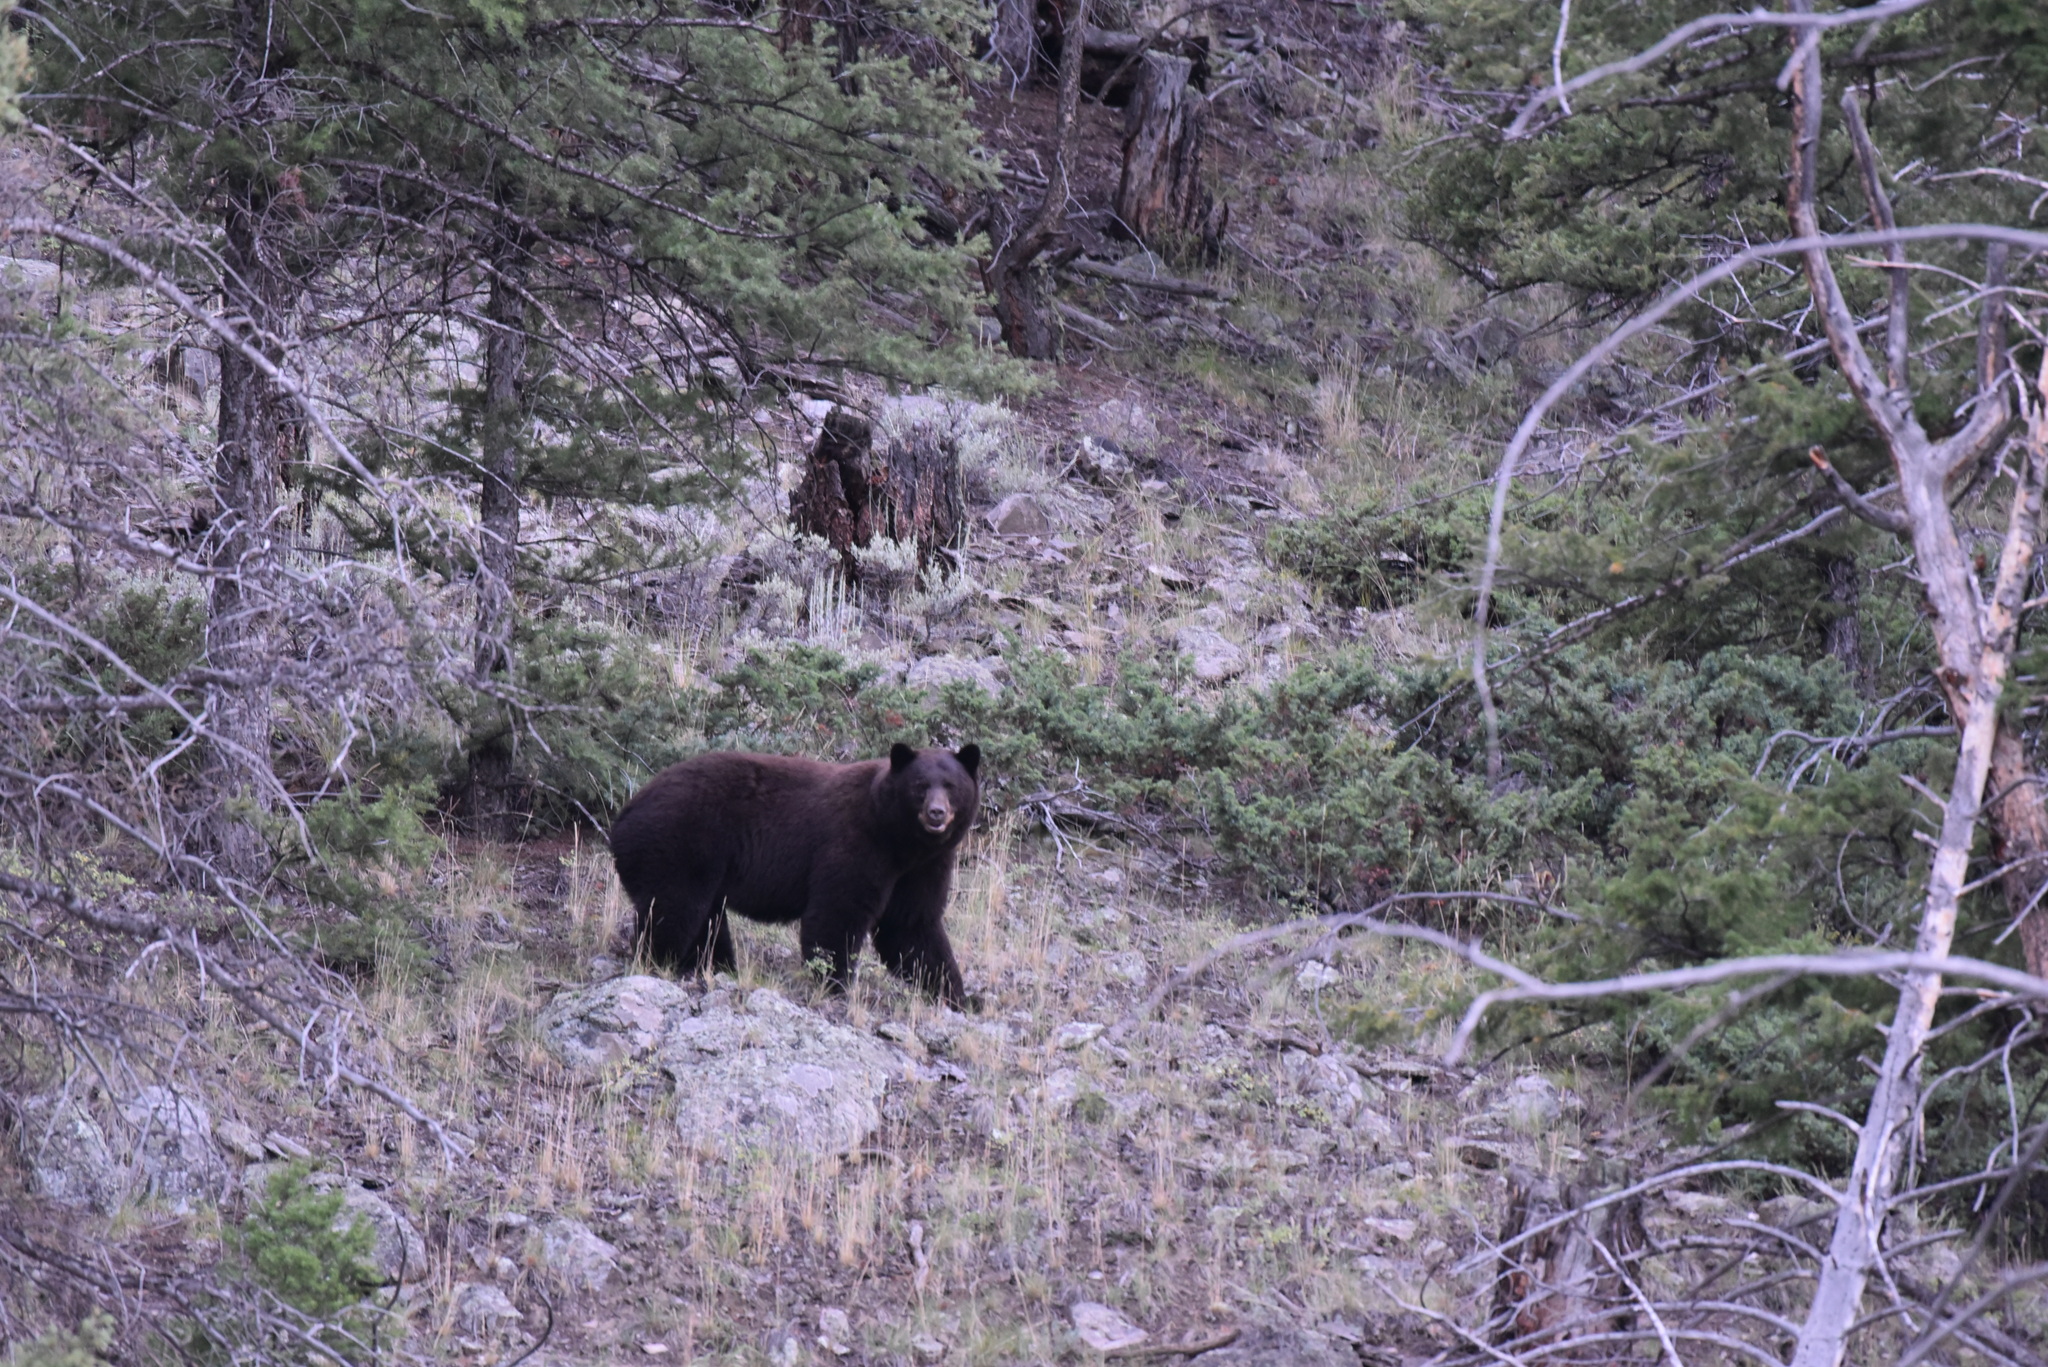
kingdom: Animalia
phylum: Chordata
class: Mammalia
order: Carnivora
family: Ursidae
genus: Ursus
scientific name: Ursus americanus
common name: American black bear
